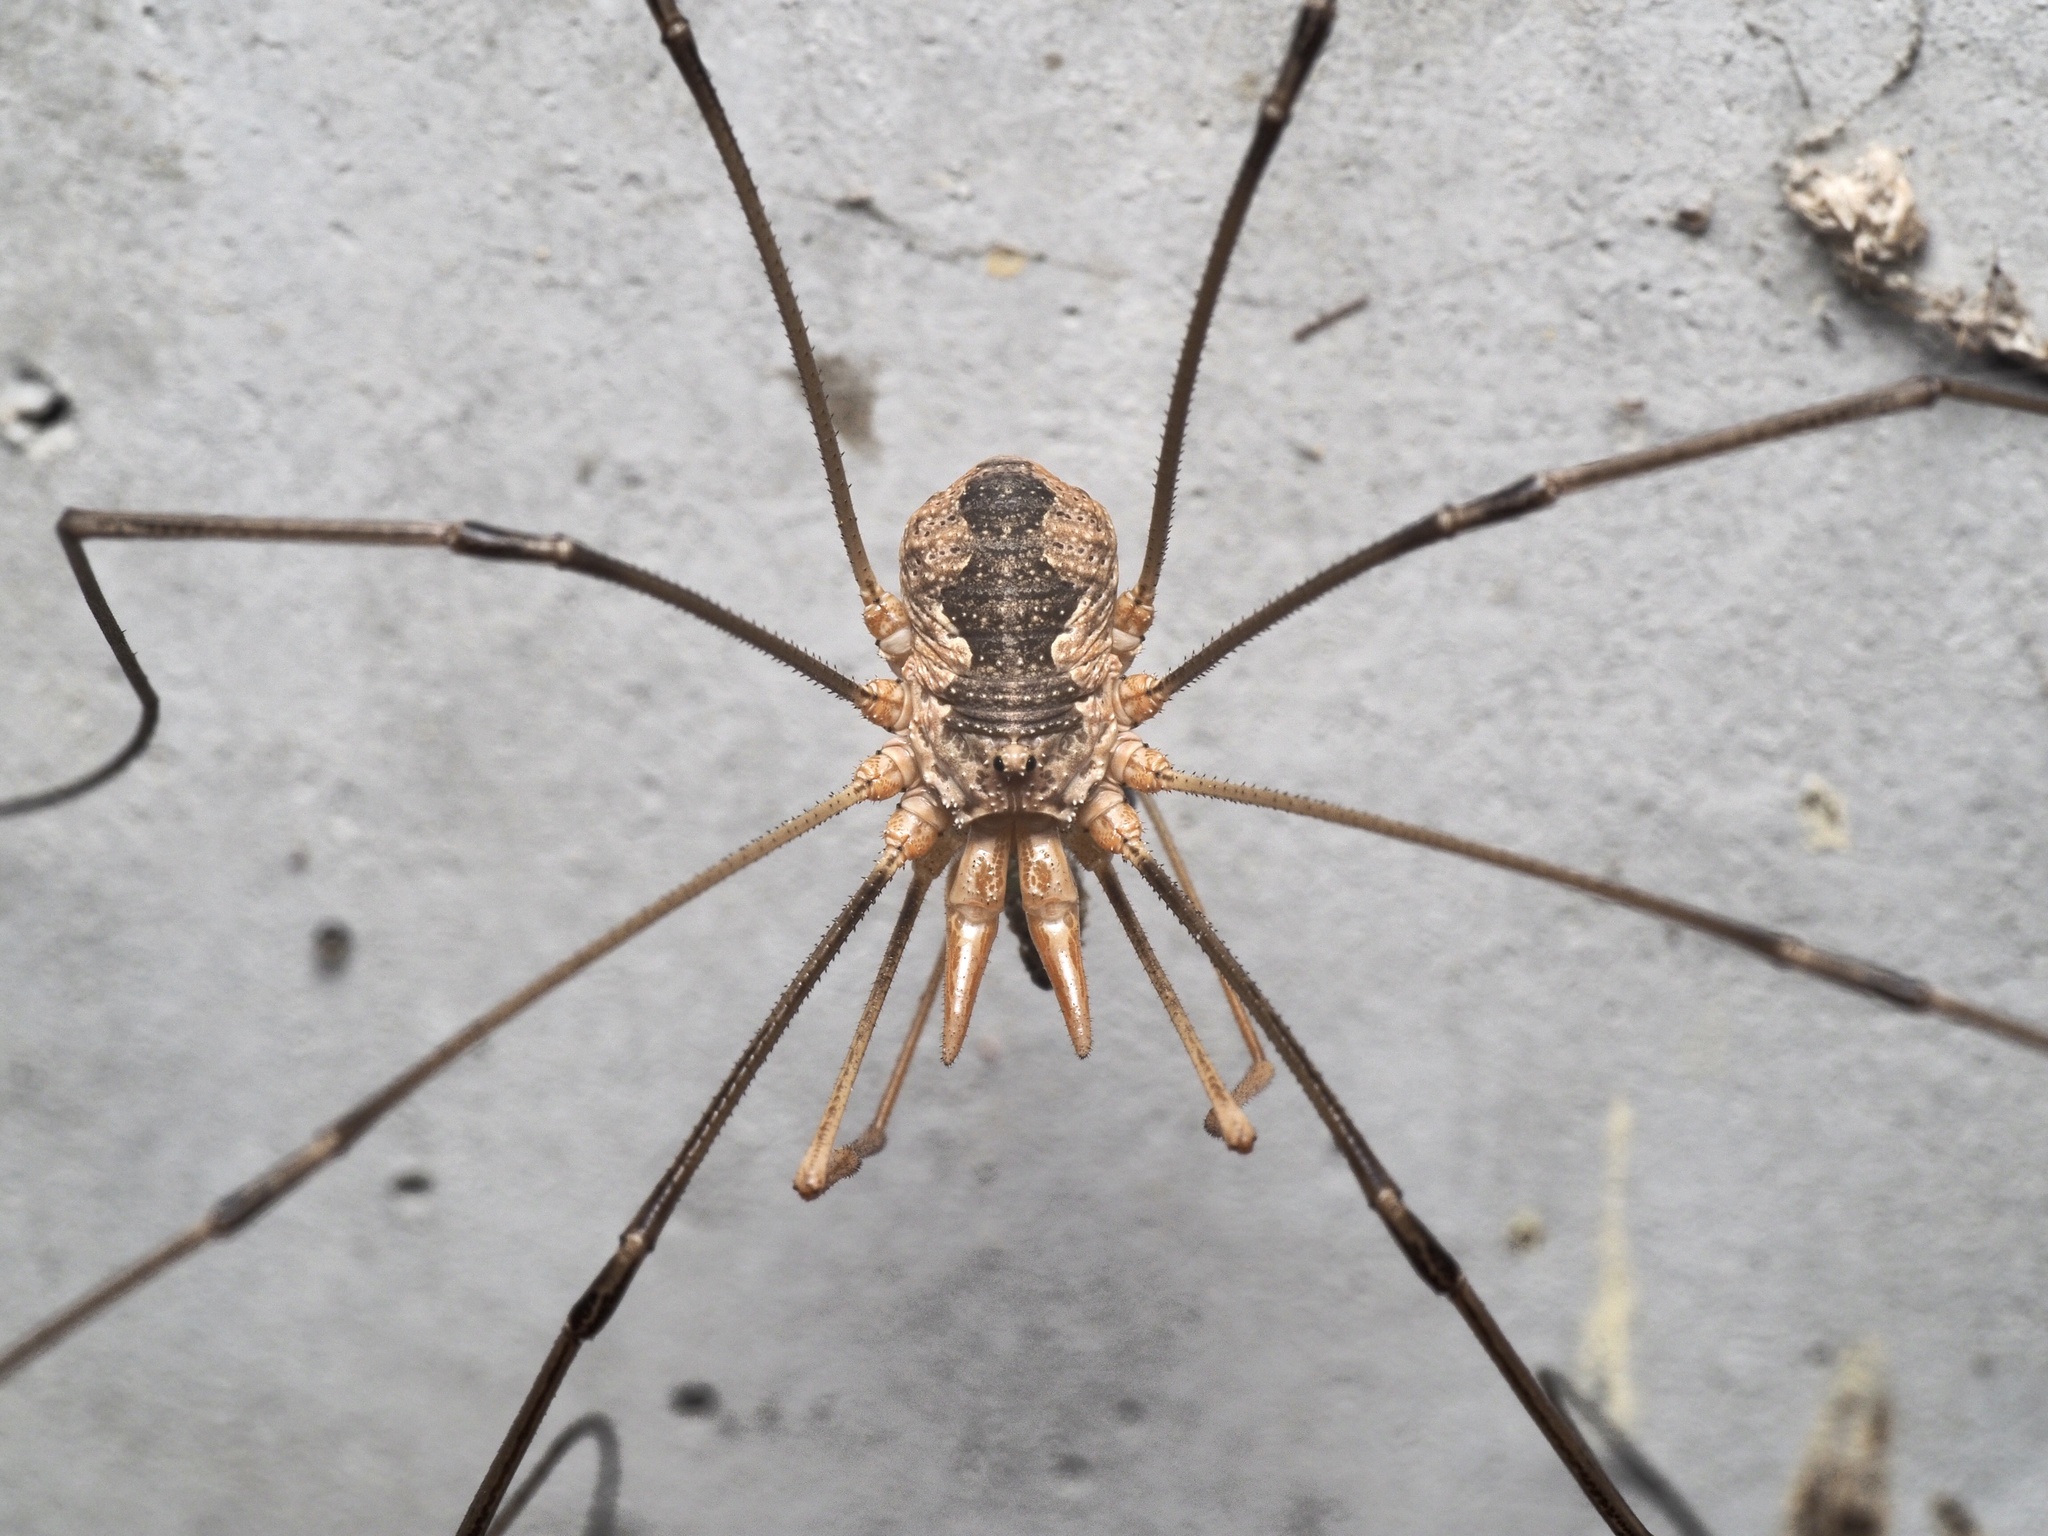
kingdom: Animalia
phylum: Arthropoda
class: Arachnida
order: Opiliones
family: Phalangiidae
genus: Phalangium
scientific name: Phalangium opilio
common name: Daddy longleg
